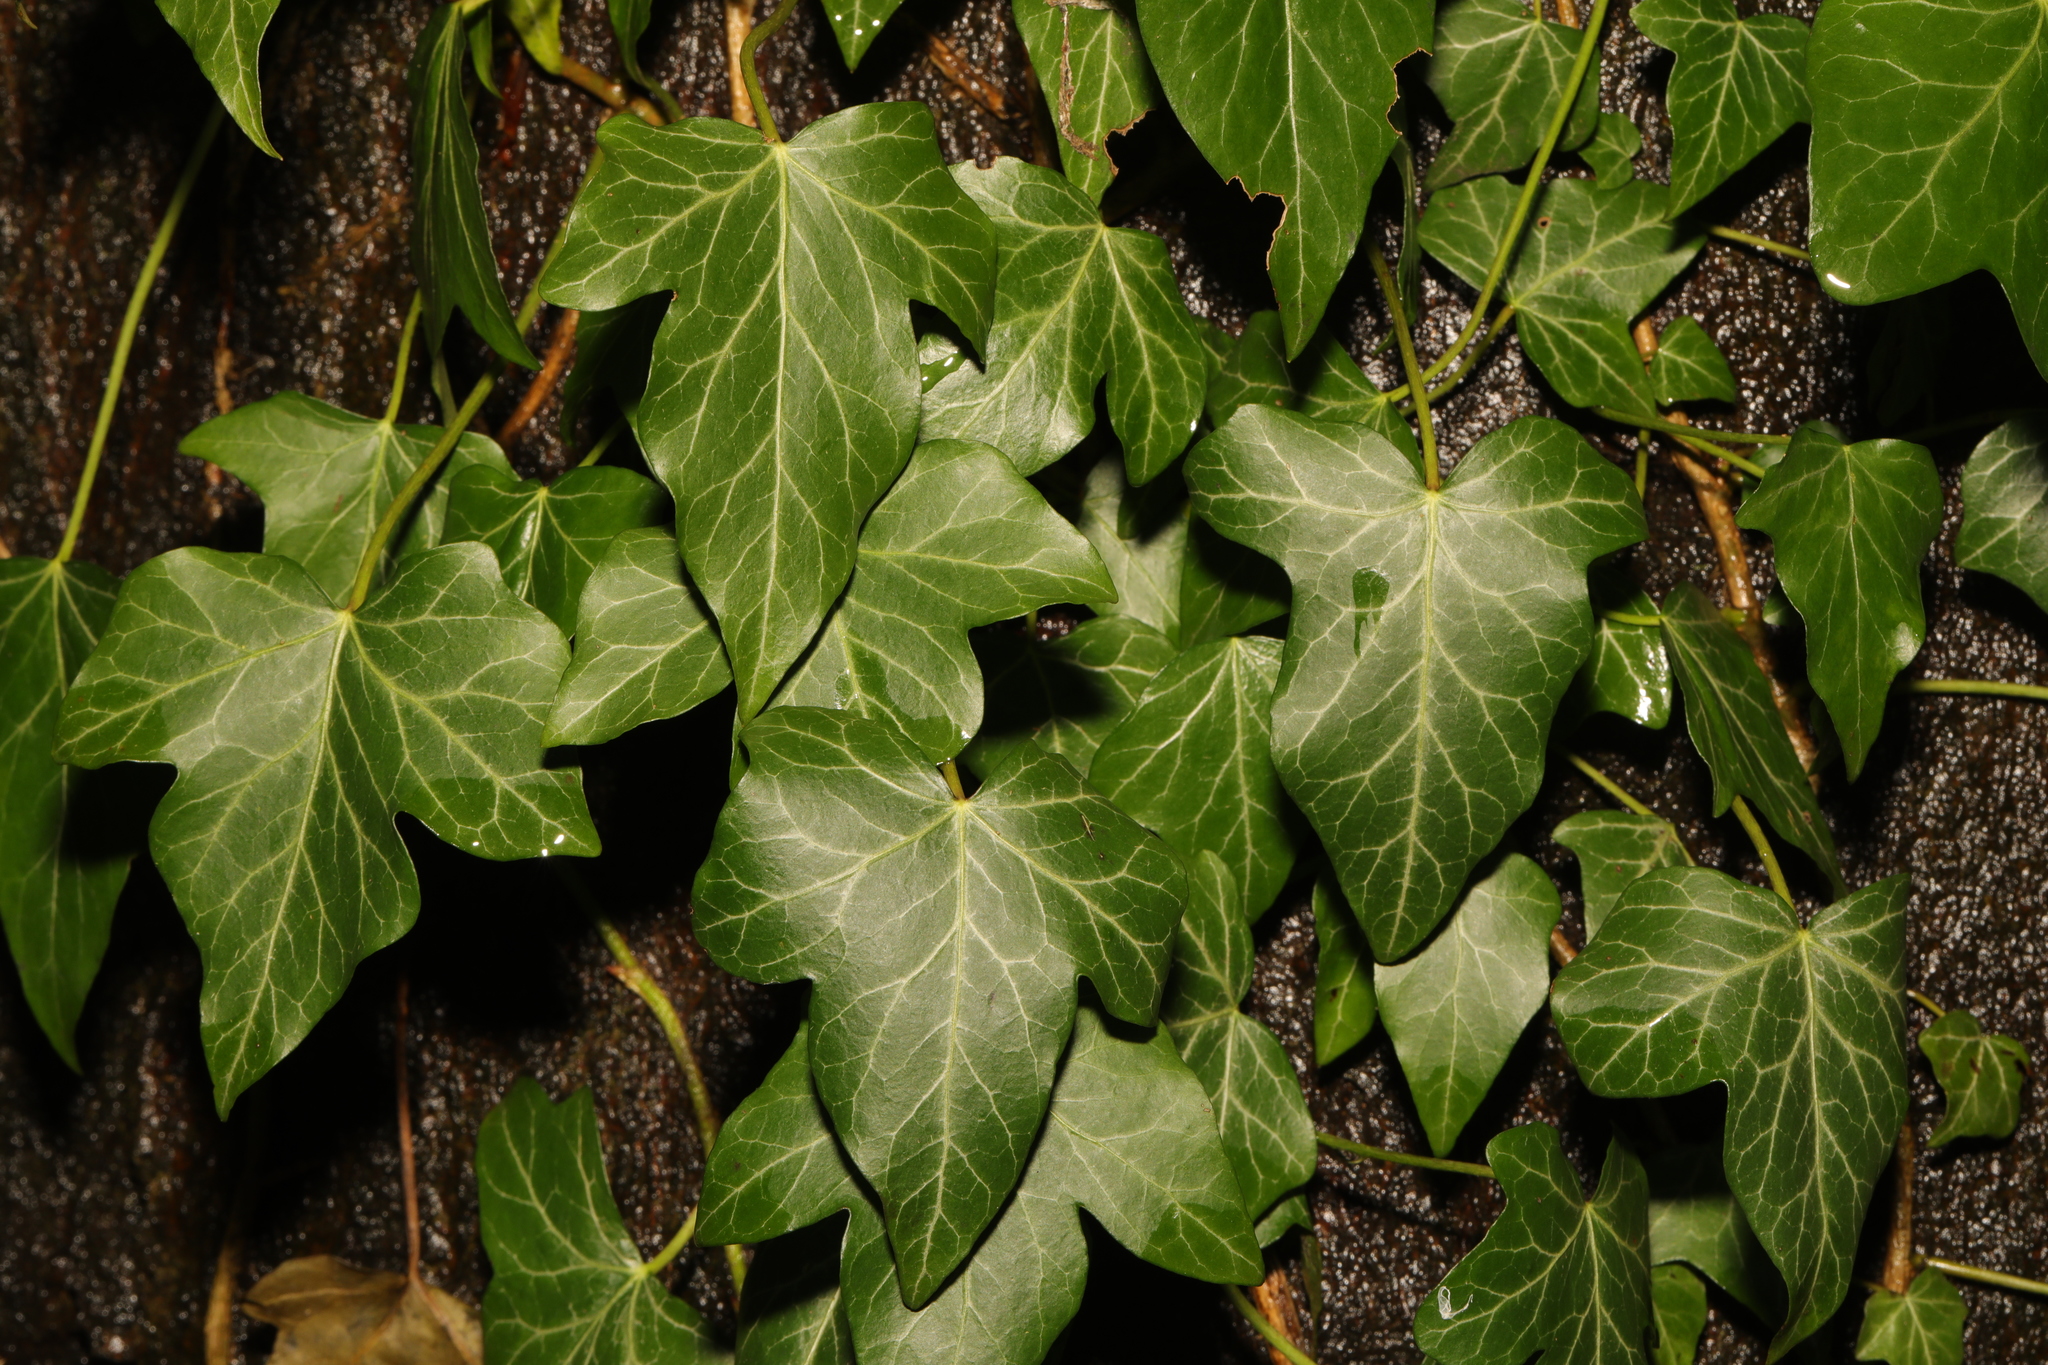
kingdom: Plantae
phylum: Tracheophyta
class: Magnoliopsida
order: Apiales
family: Araliaceae
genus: Hedera
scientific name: Hedera helix
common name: Ivy
